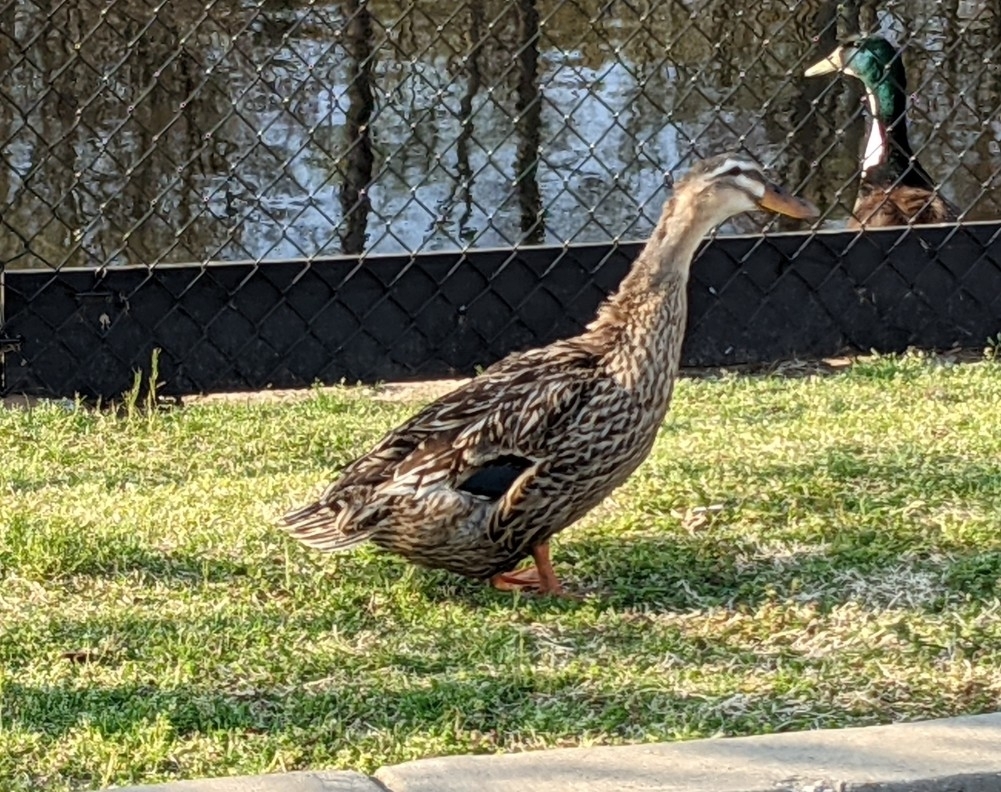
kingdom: Animalia
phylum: Chordata
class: Aves
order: Anseriformes
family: Anatidae
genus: Anas
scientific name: Anas platyrhynchos
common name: Mallard
